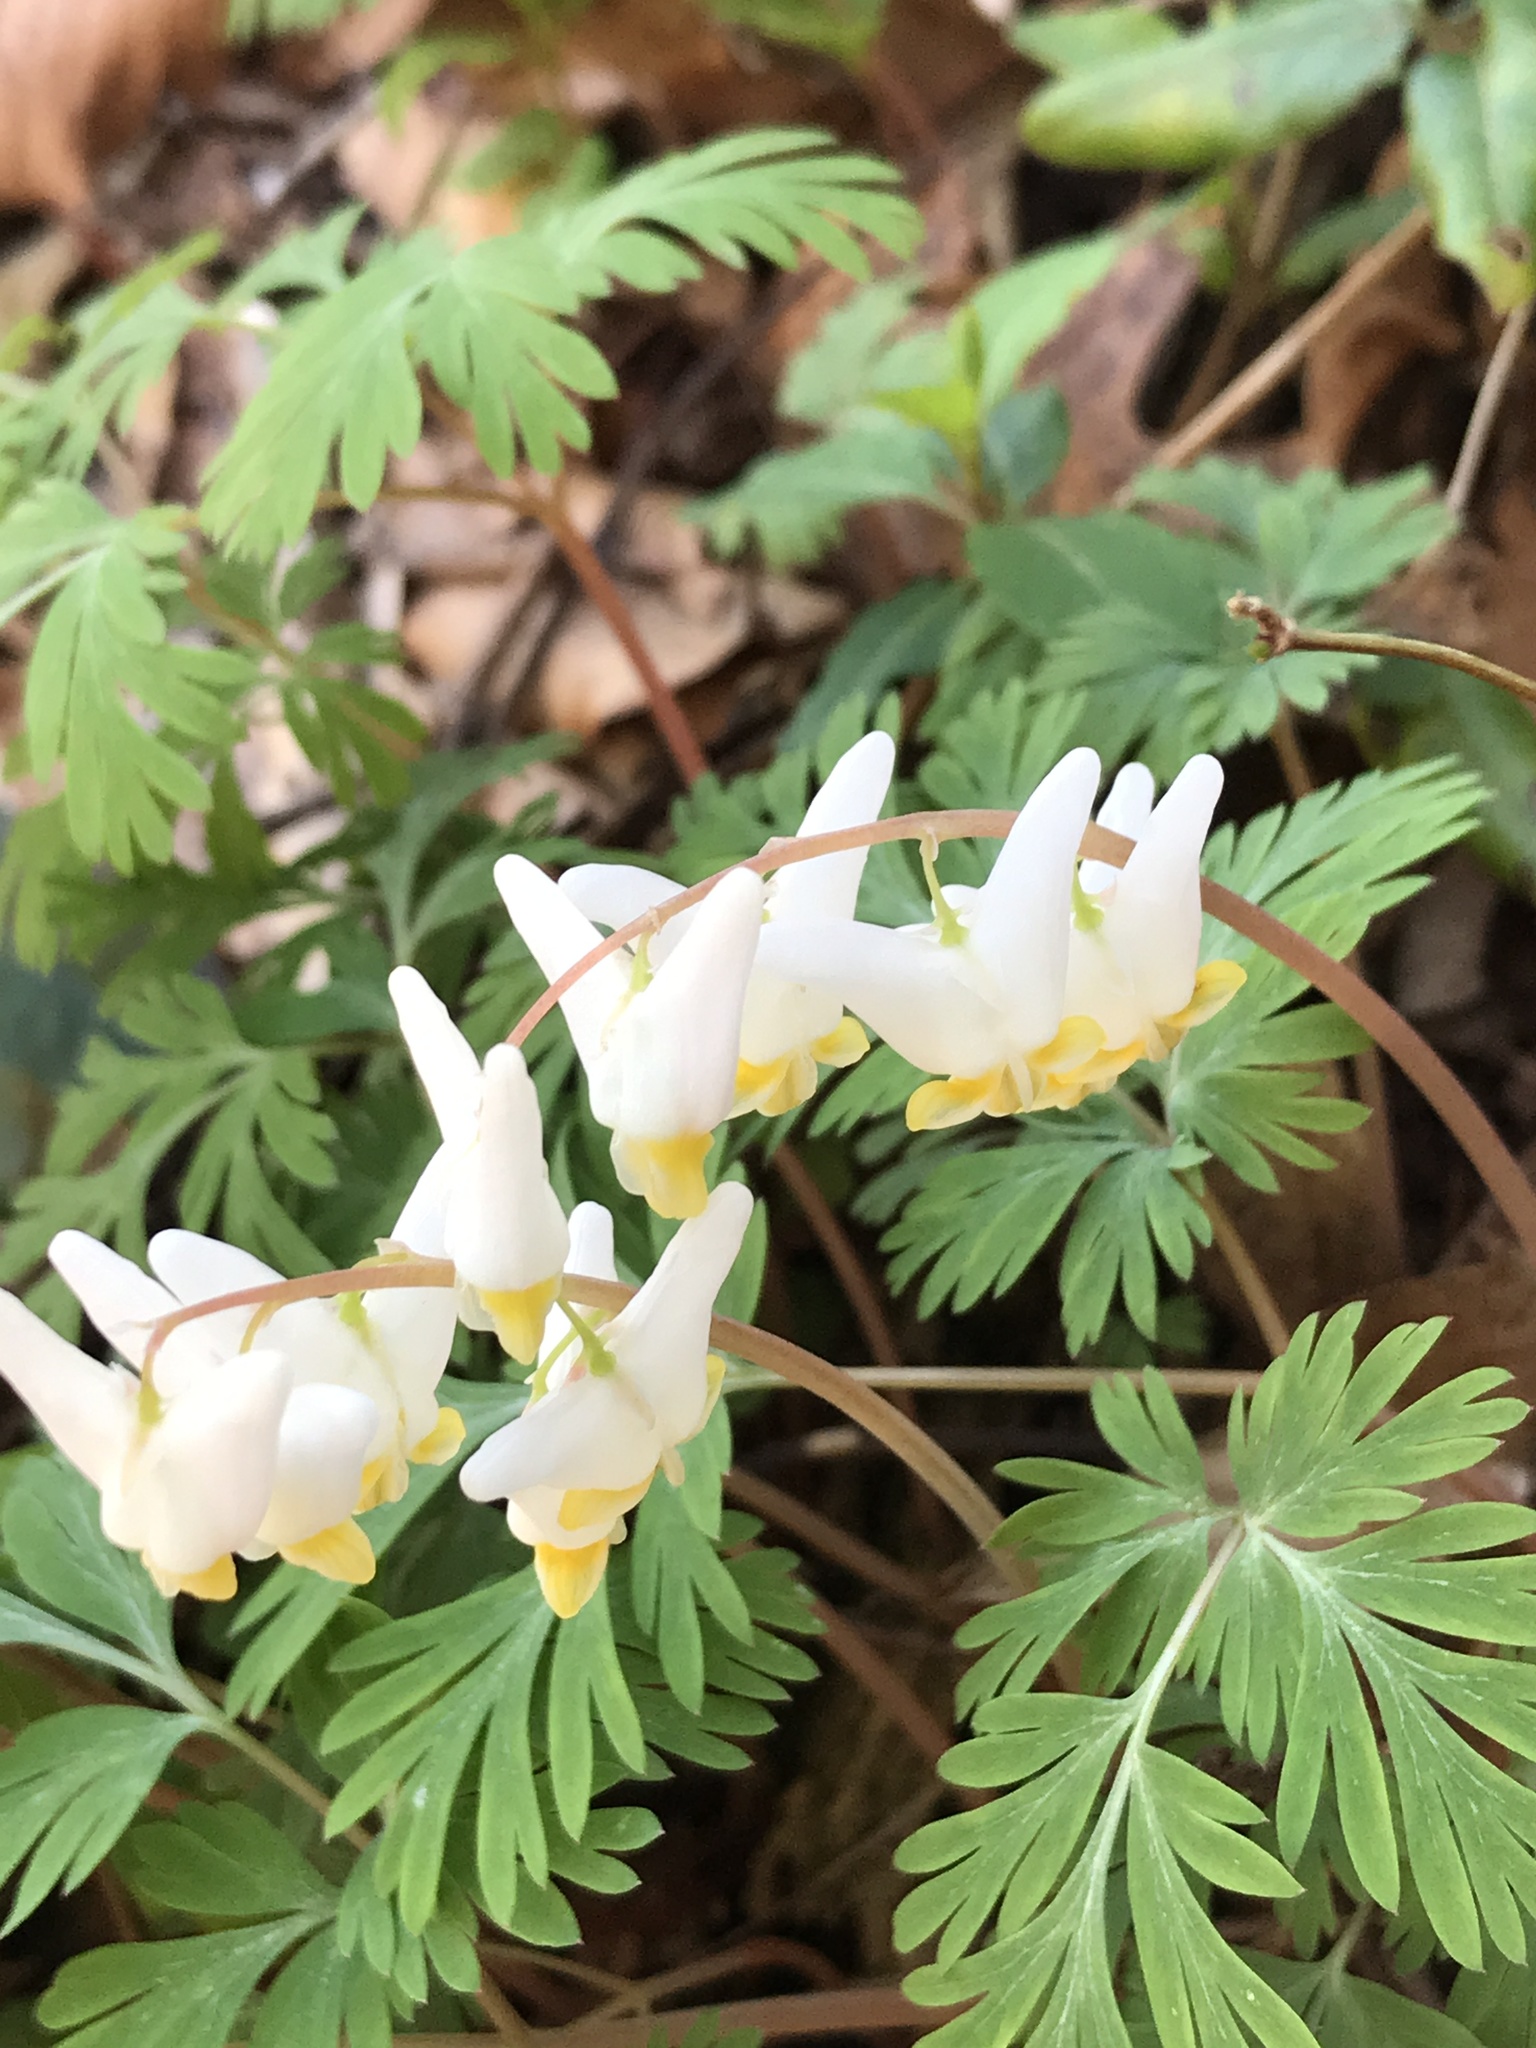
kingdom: Plantae
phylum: Tracheophyta
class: Magnoliopsida
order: Ranunculales
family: Papaveraceae
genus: Dicentra
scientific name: Dicentra cucullaria
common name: Dutchman's breeches
